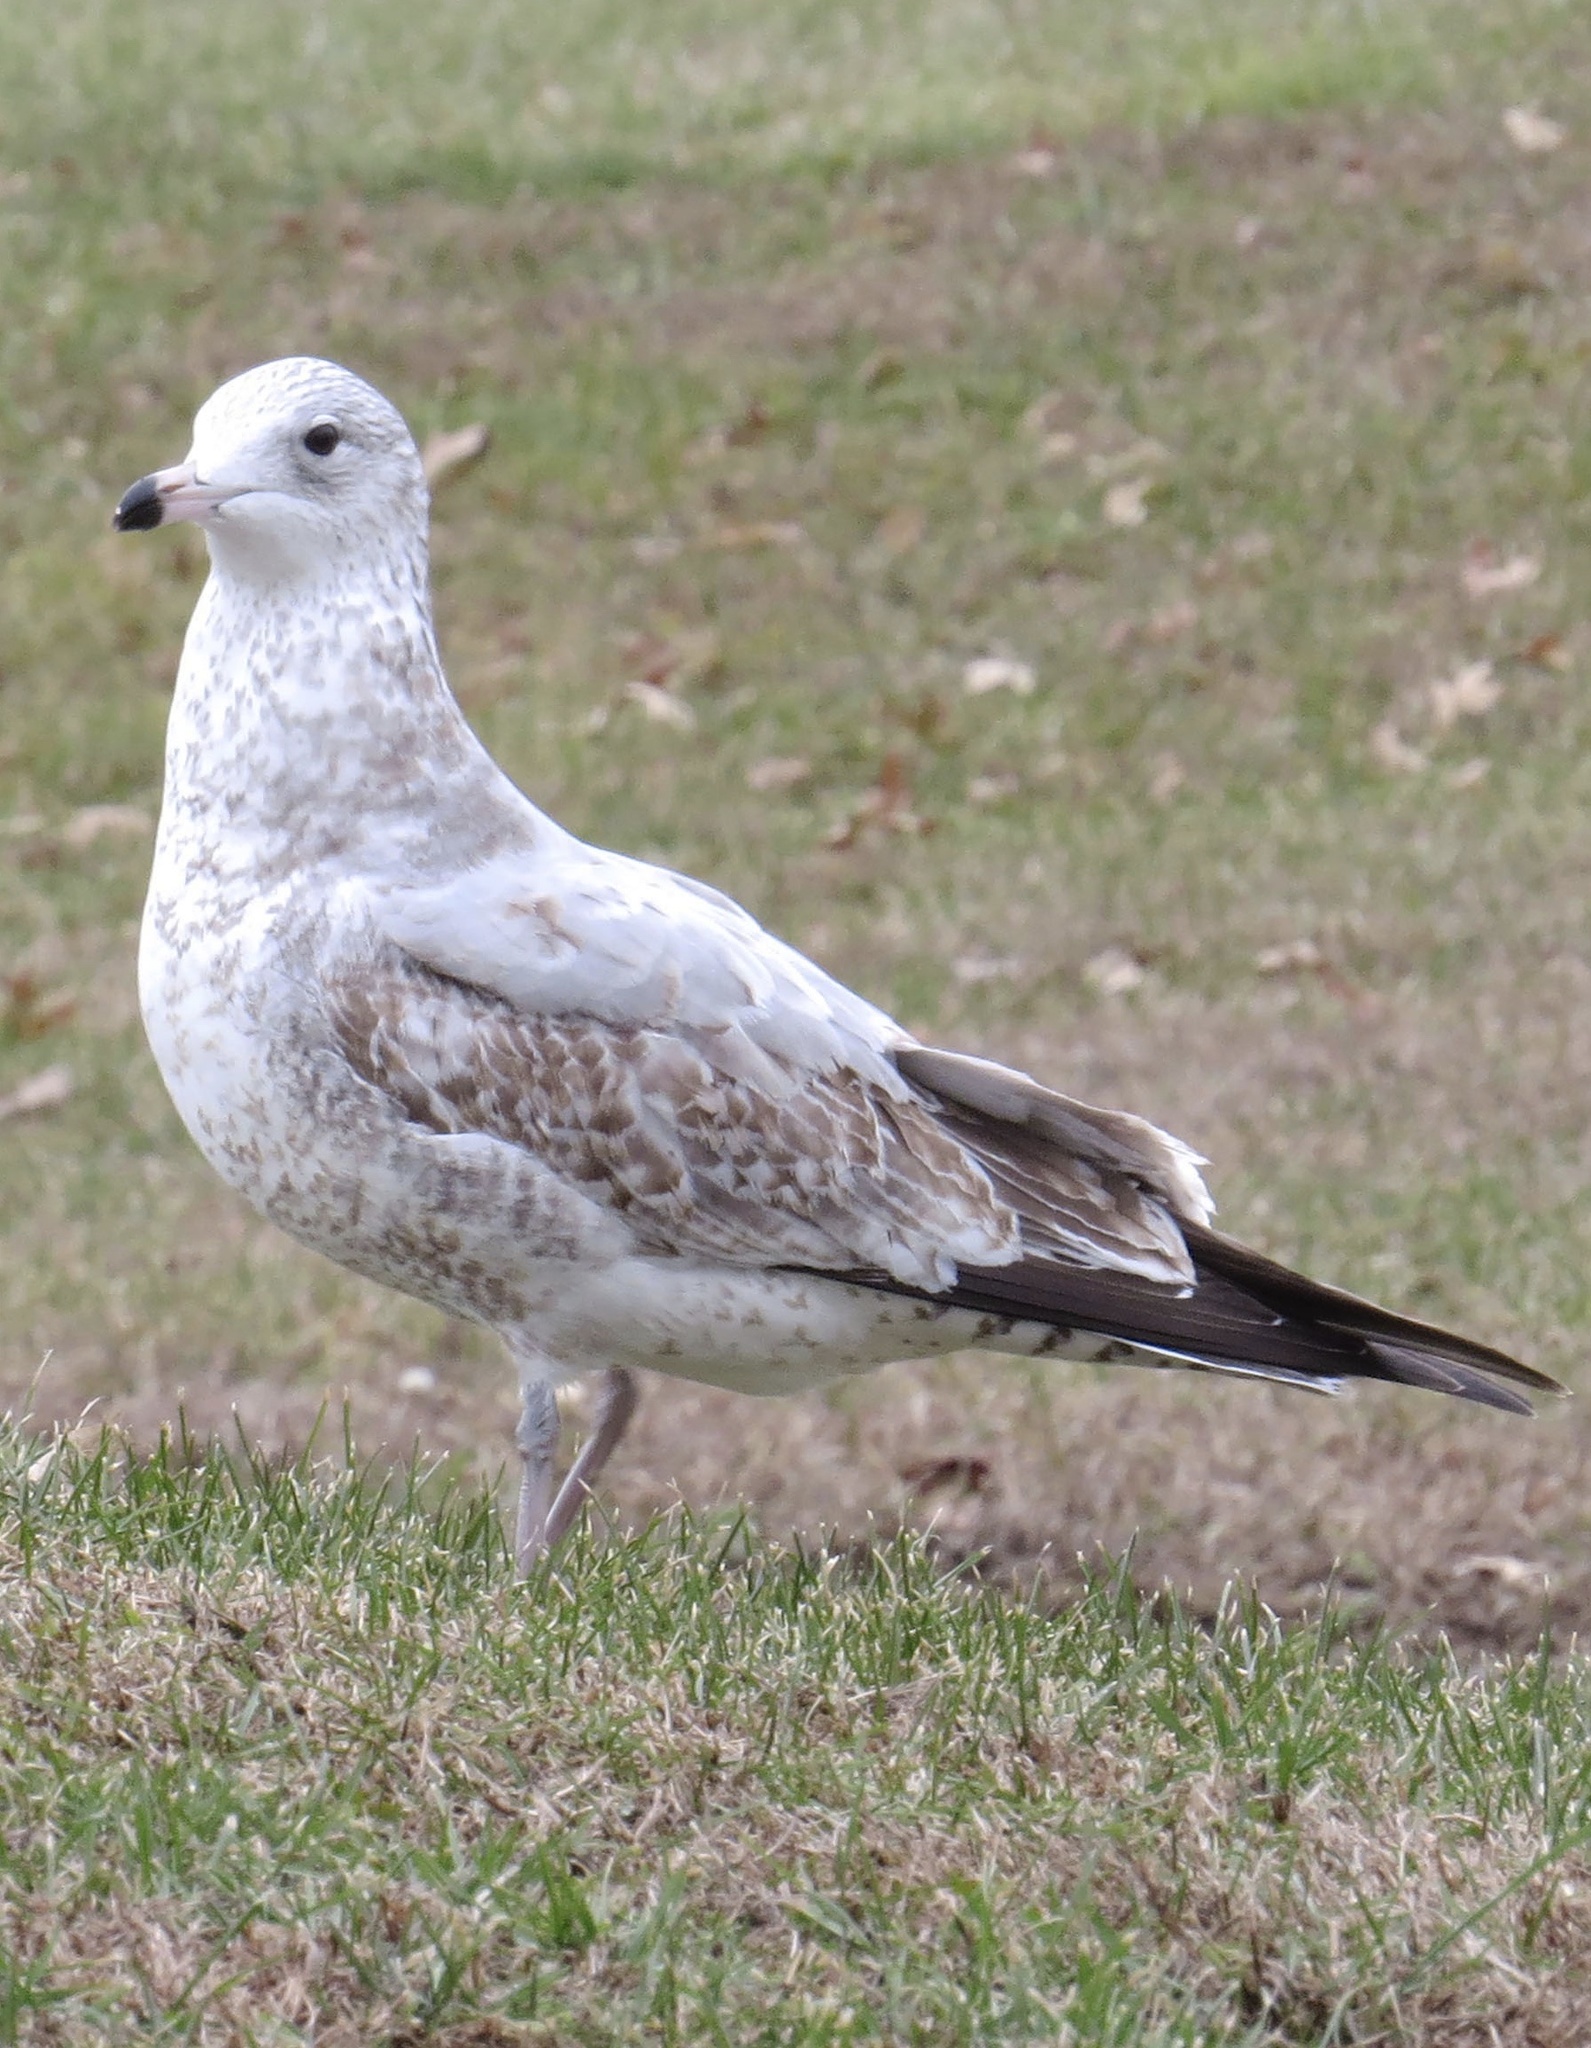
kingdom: Animalia
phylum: Chordata
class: Aves
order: Charadriiformes
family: Laridae
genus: Larus
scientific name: Larus delawarensis
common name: Ring-billed gull
